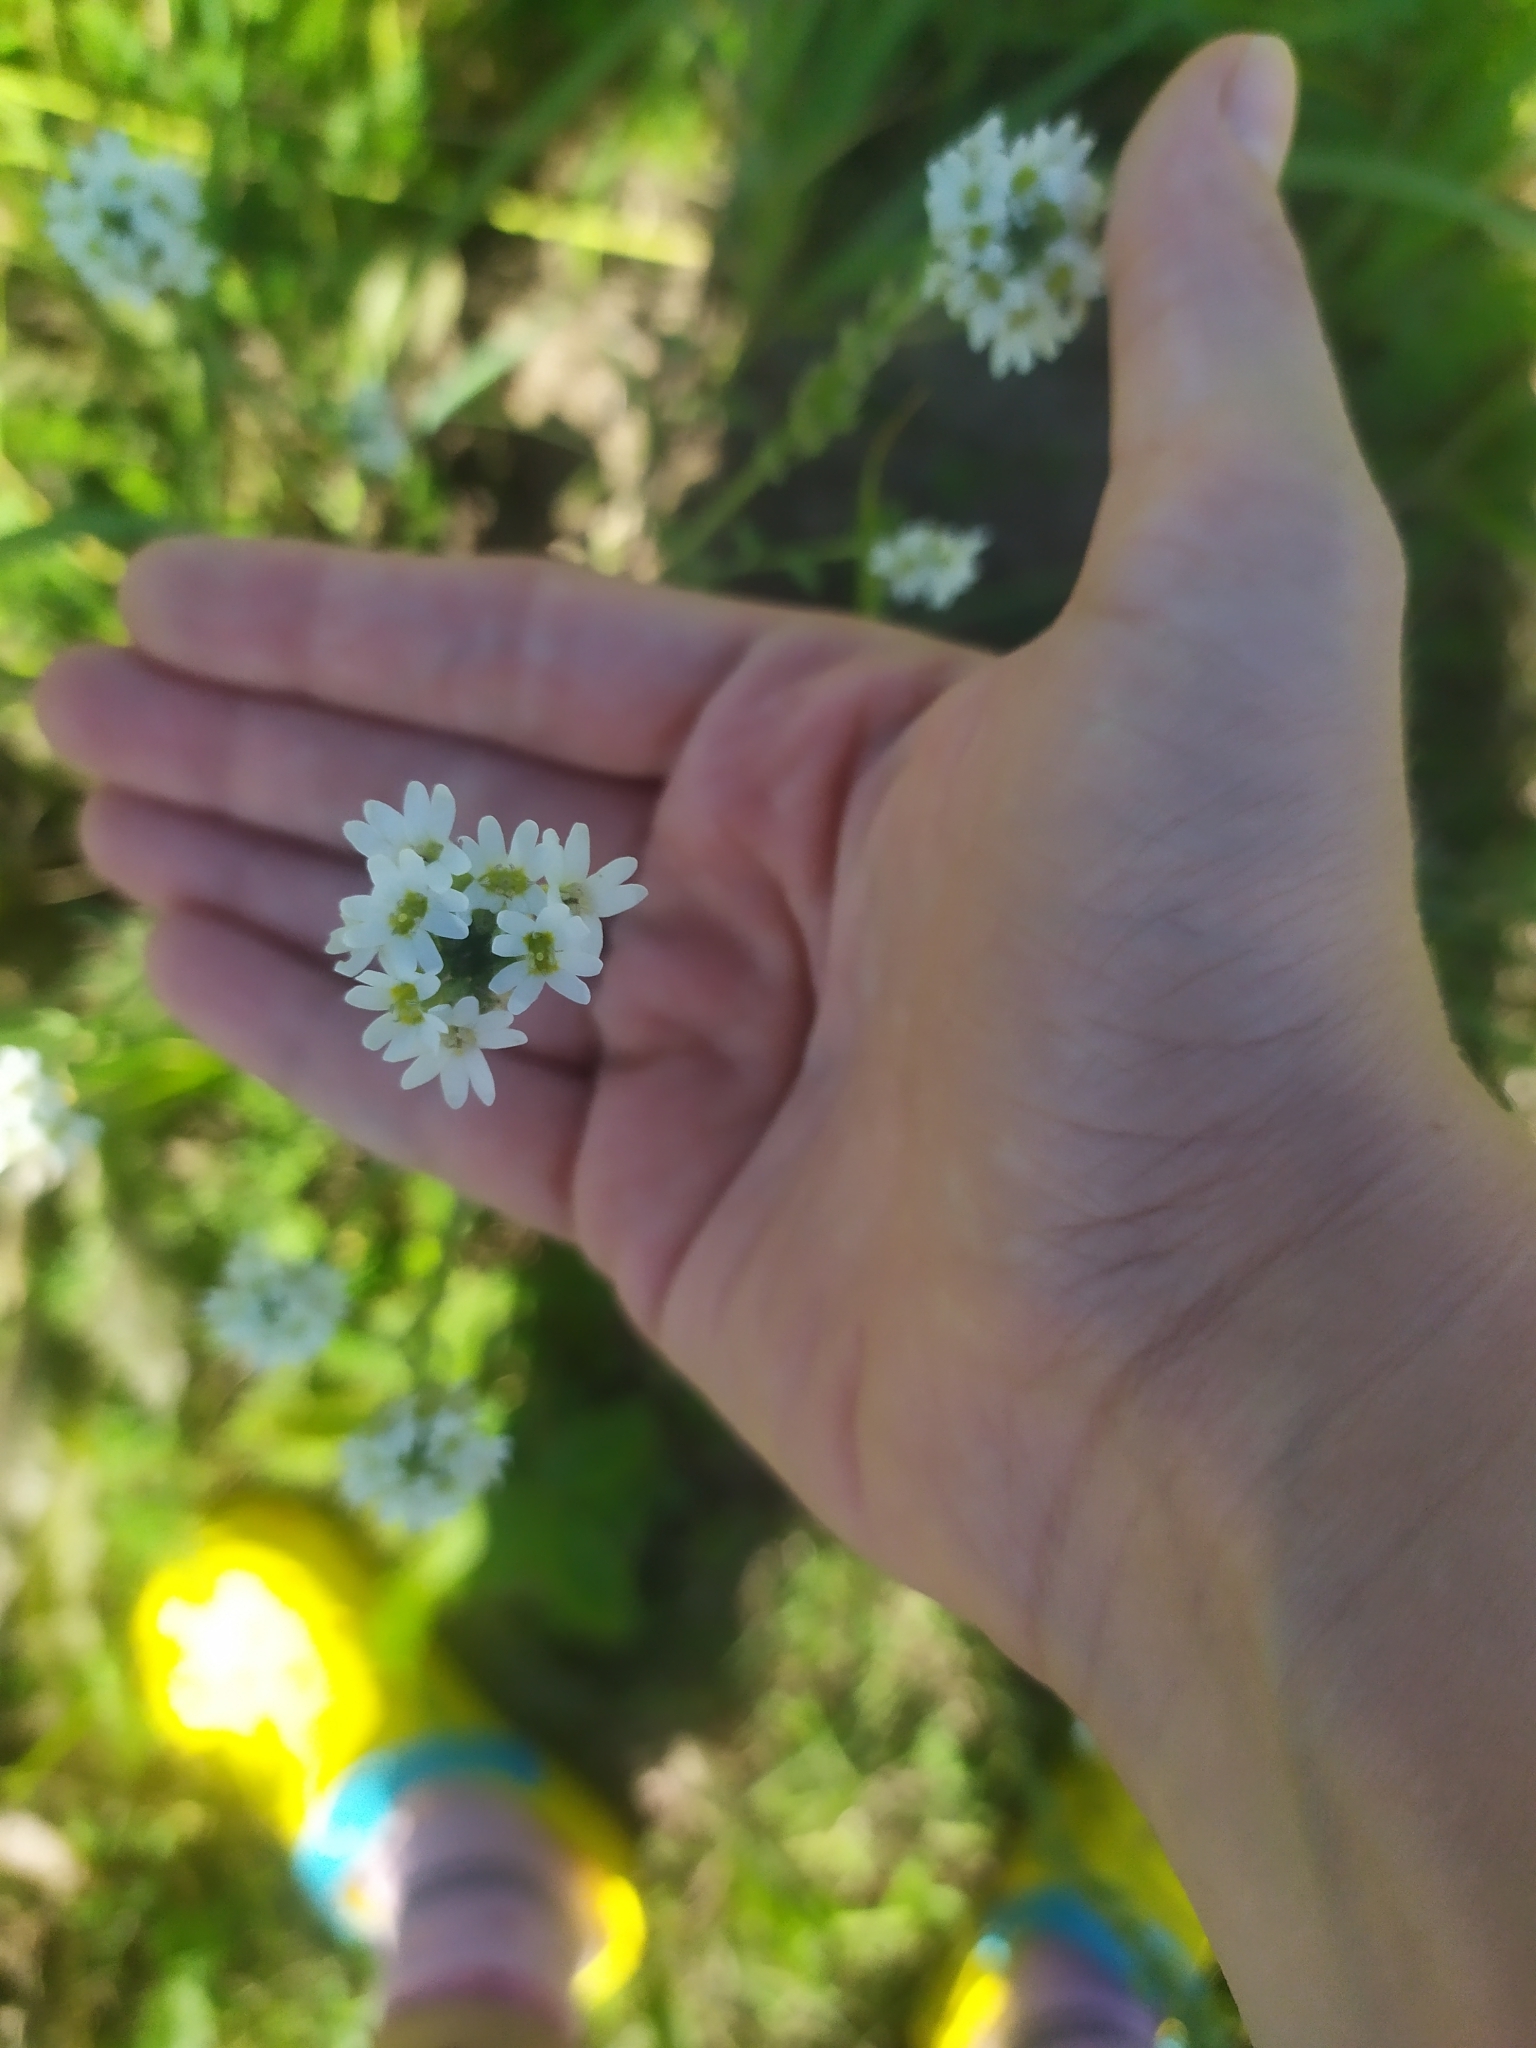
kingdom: Plantae
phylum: Tracheophyta
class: Magnoliopsida
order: Brassicales
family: Brassicaceae
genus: Berteroa
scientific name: Berteroa incana
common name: Hoary alison
